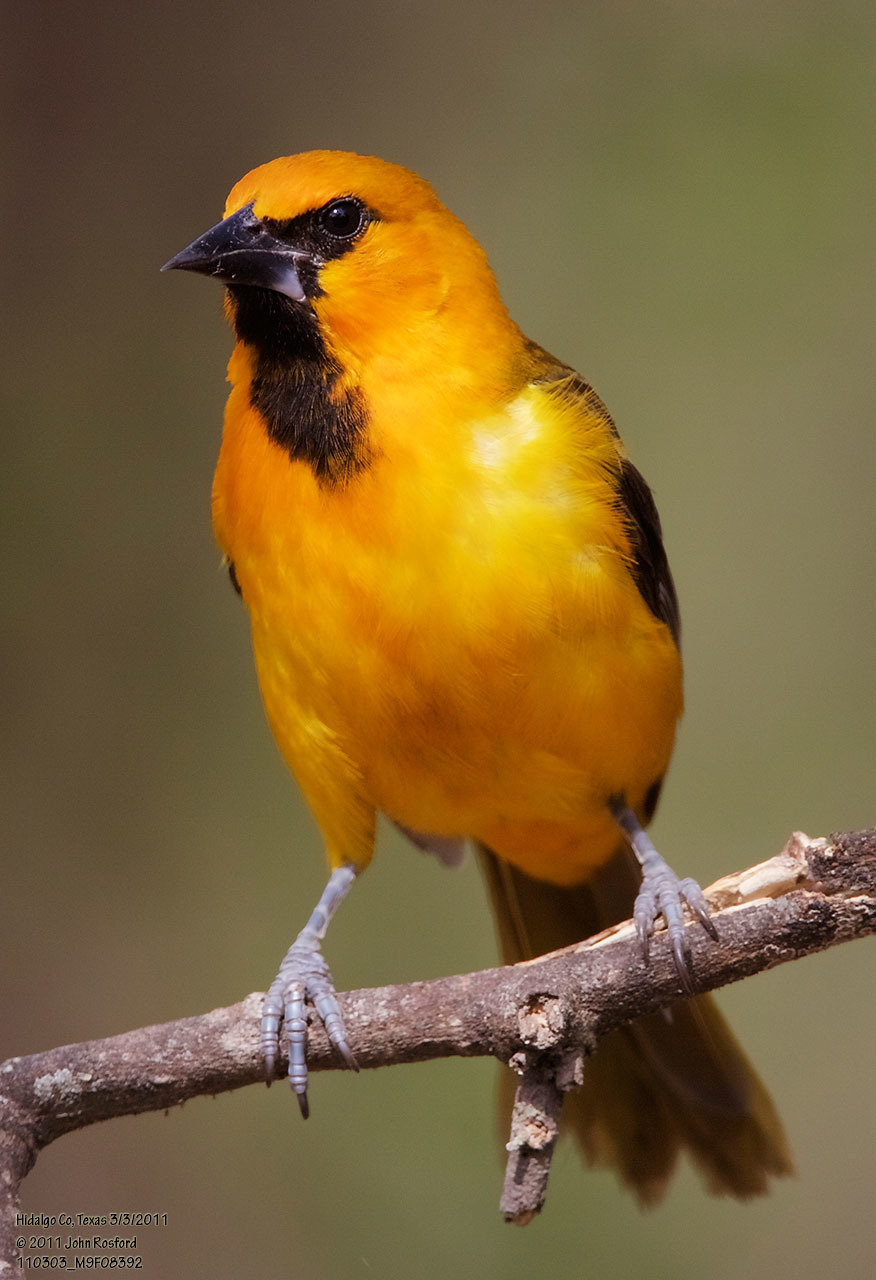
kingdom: Animalia
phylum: Chordata
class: Aves
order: Passeriformes
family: Icteridae
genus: Icterus
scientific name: Icterus gularis
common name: Altamira oriole
